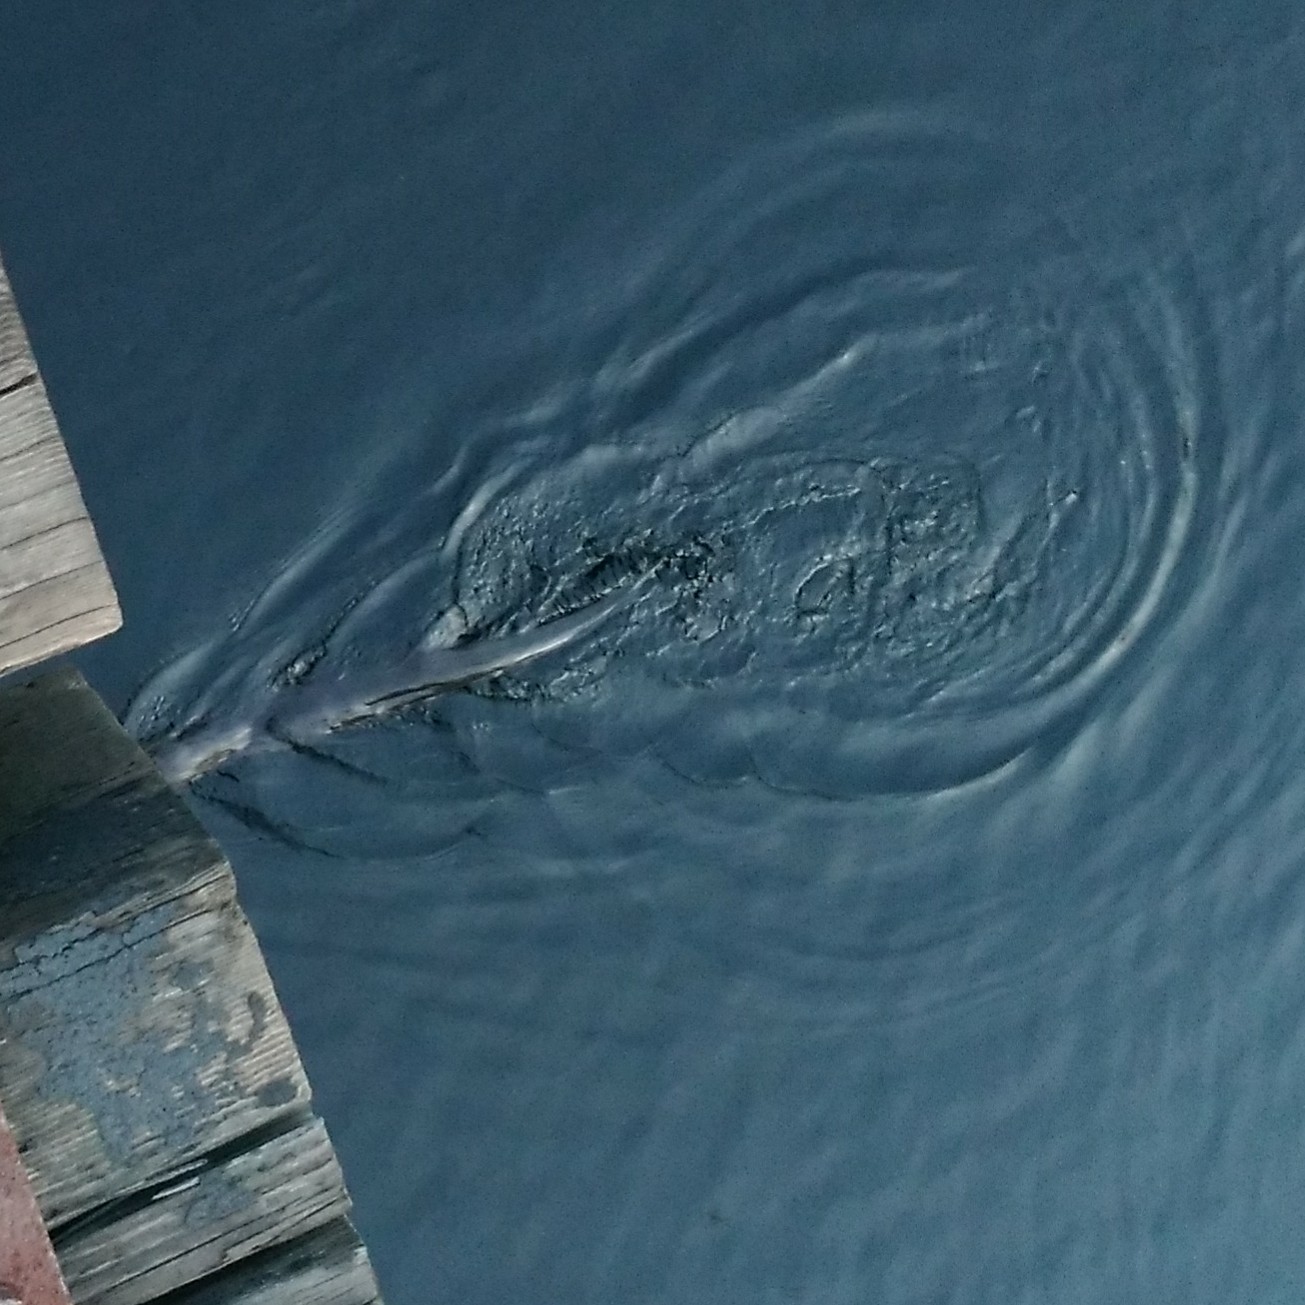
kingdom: Animalia
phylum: Chordata
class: Mammalia
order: Carnivora
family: Mustelidae
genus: Lontra
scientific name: Lontra canadensis
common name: North american river otter
